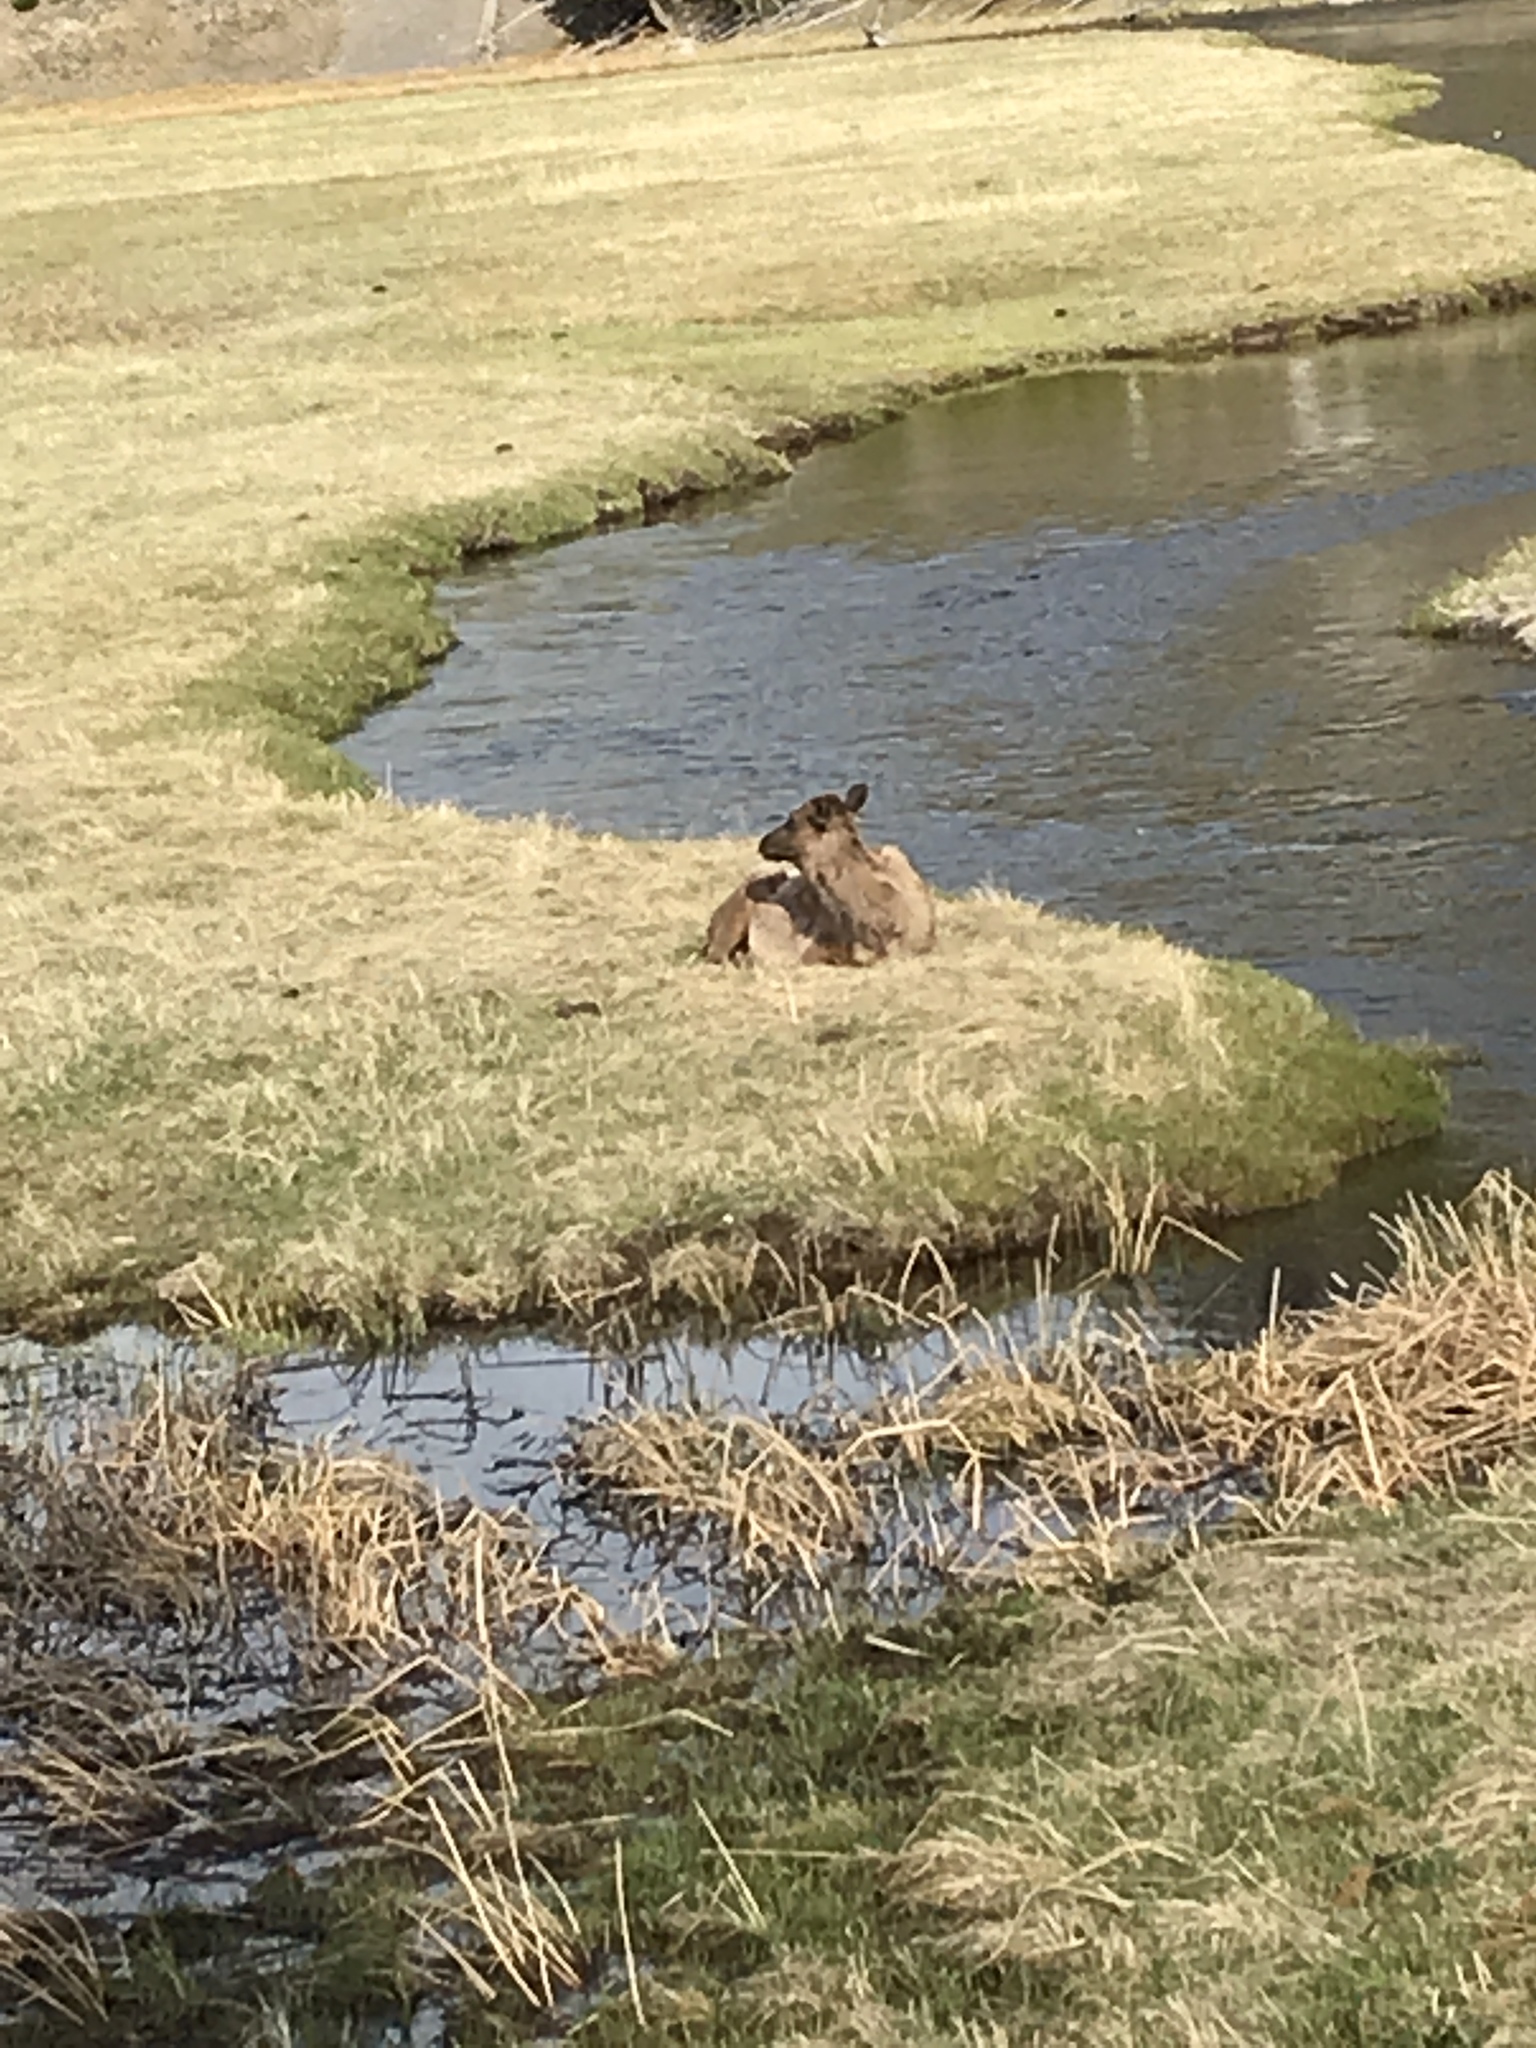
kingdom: Animalia
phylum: Chordata
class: Mammalia
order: Artiodactyla
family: Cervidae
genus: Cervus
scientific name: Cervus elaphus
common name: Red deer
